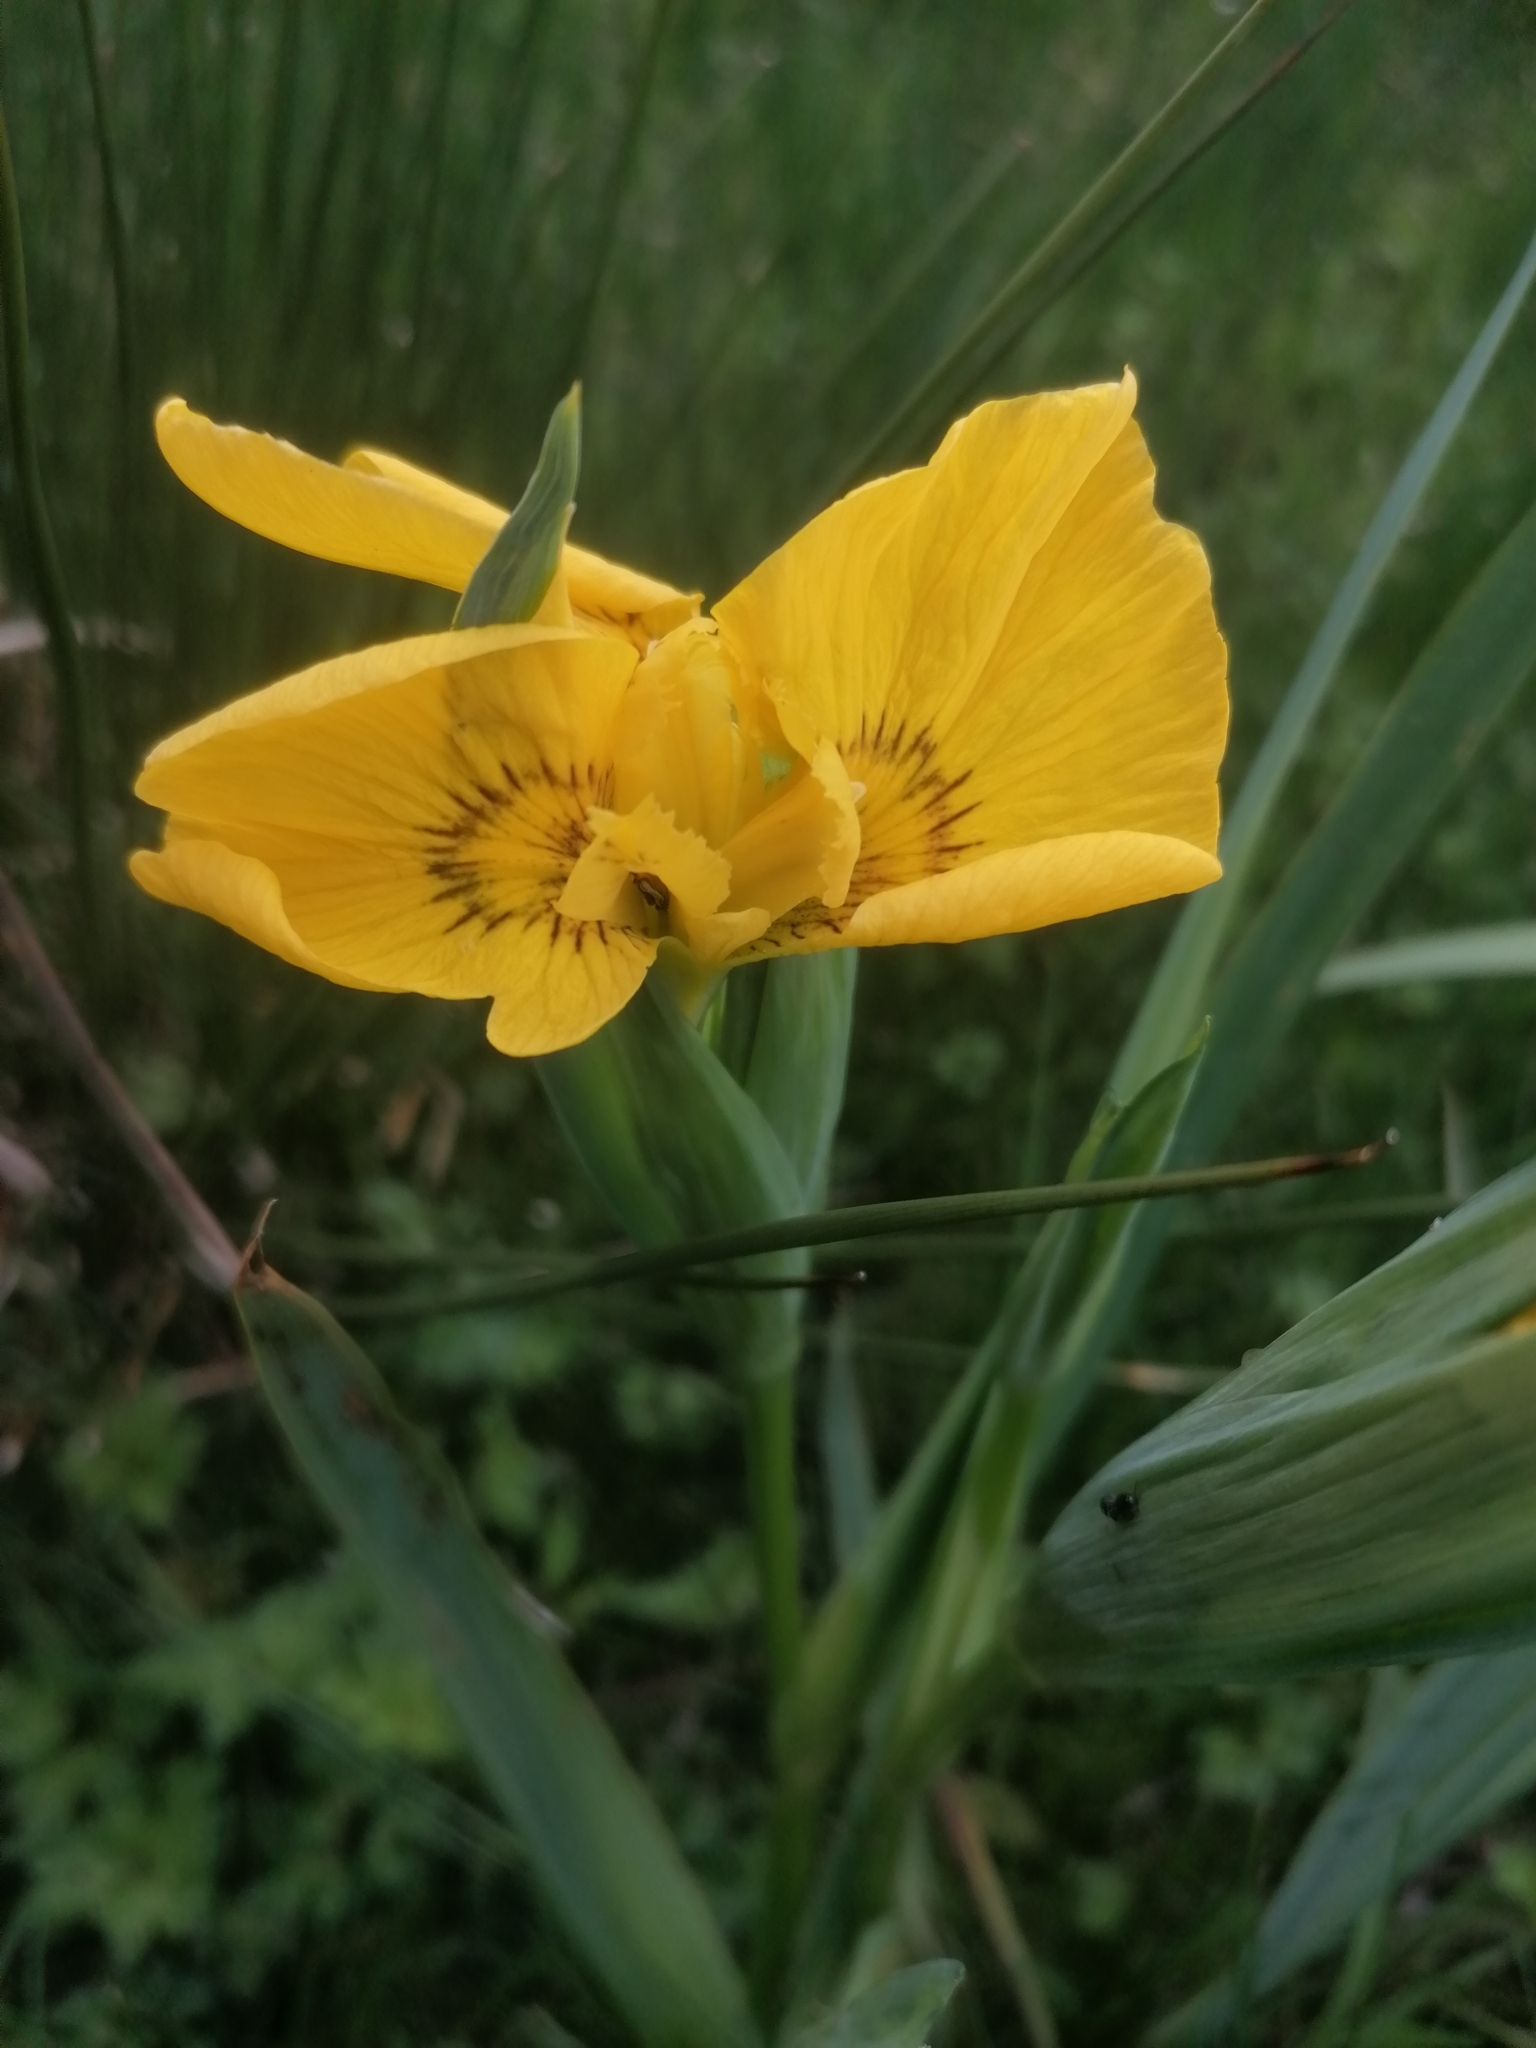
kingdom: Plantae
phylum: Tracheophyta
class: Liliopsida
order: Asparagales
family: Iridaceae
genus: Iris
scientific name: Iris pseudacorus
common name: Yellow flag
